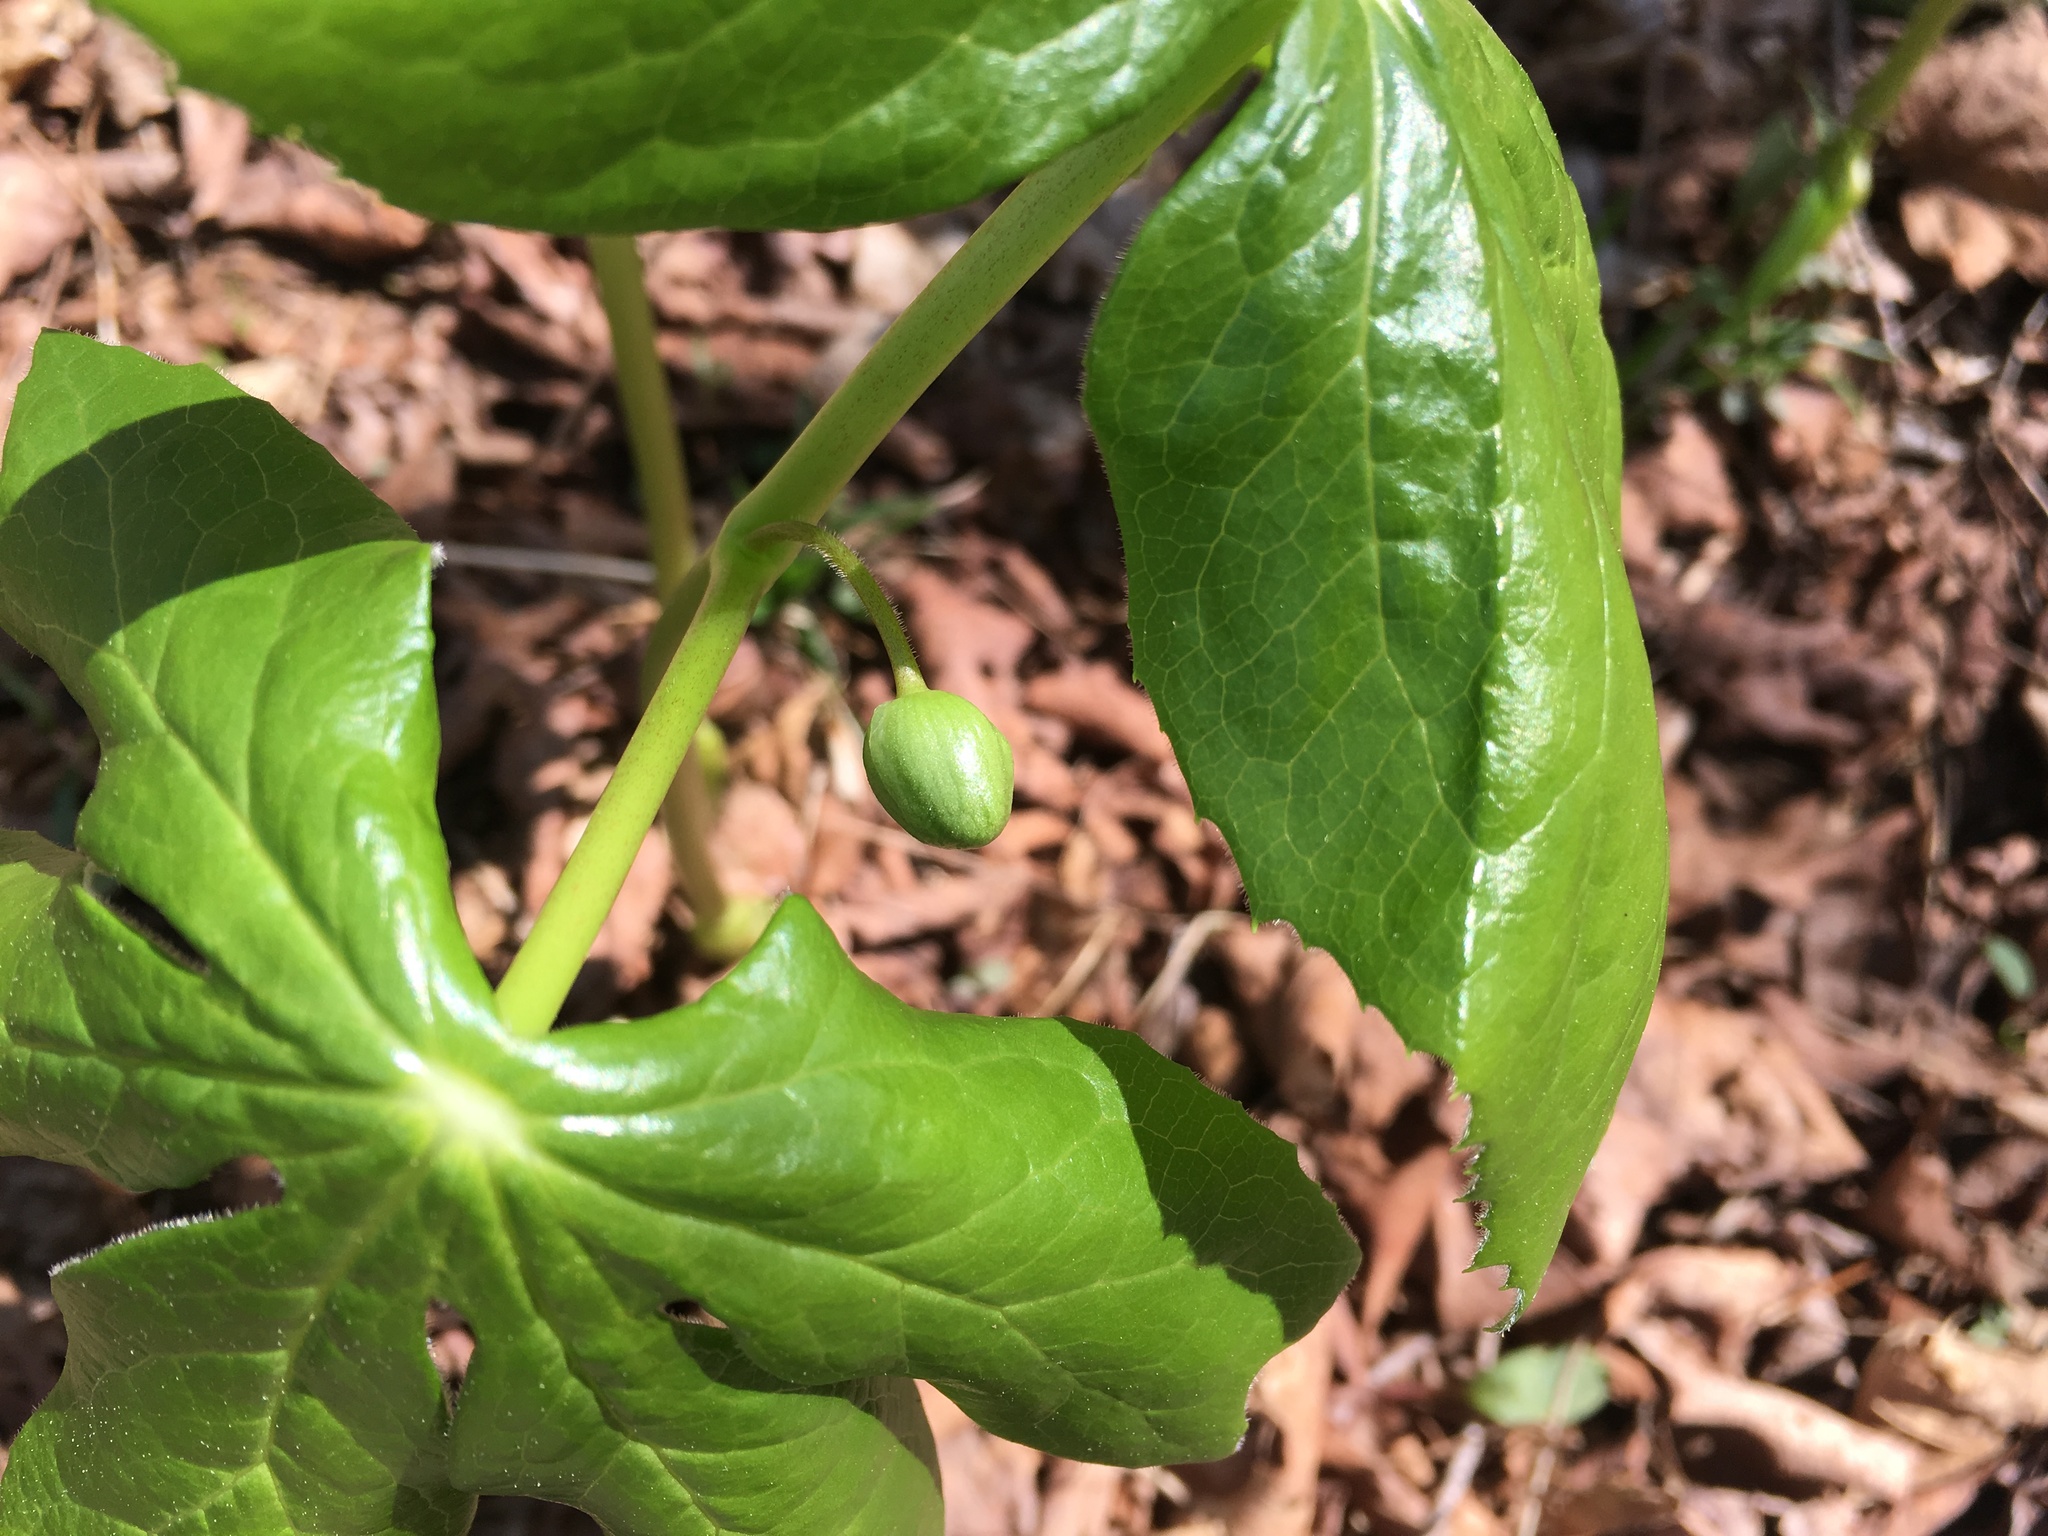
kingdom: Plantae
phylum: Tracheophyta
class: Magnoliopsida
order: Ranunculales
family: Berberidaceae
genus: Podophyllum
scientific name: Podophyllum peltatum
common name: Wild mandrake
